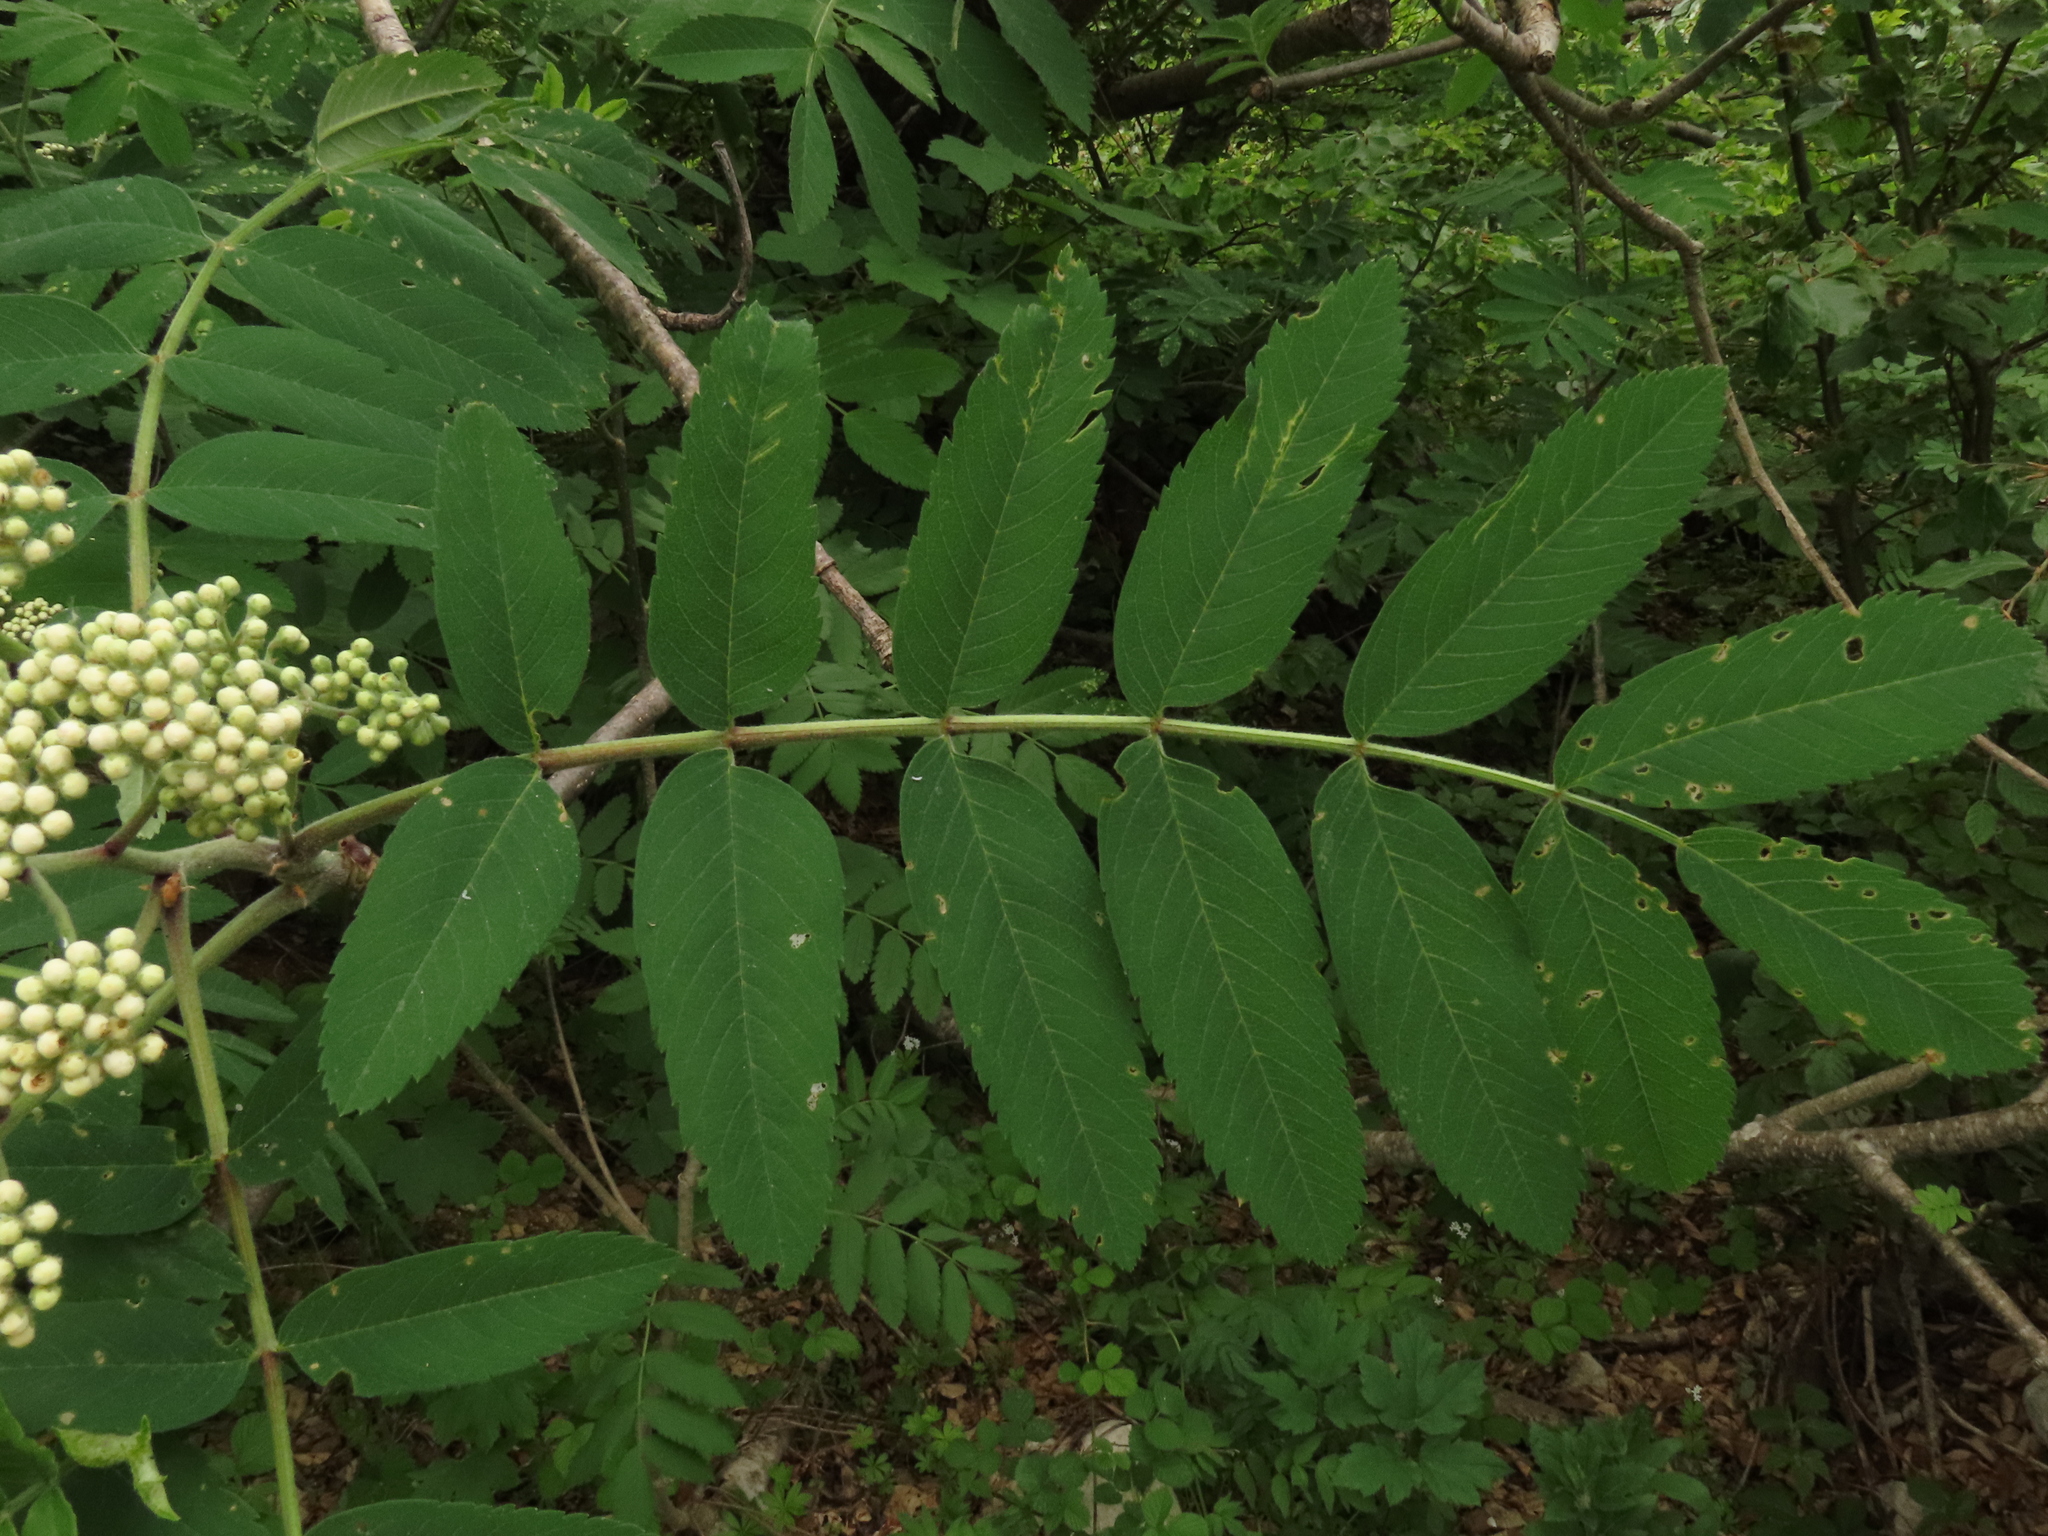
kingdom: Plantae
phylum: Tracheophyta
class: Magnoliopsida
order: Rosales
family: Rosaceae
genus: Sorbus
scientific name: Sorbus aucuparia
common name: Rowan
